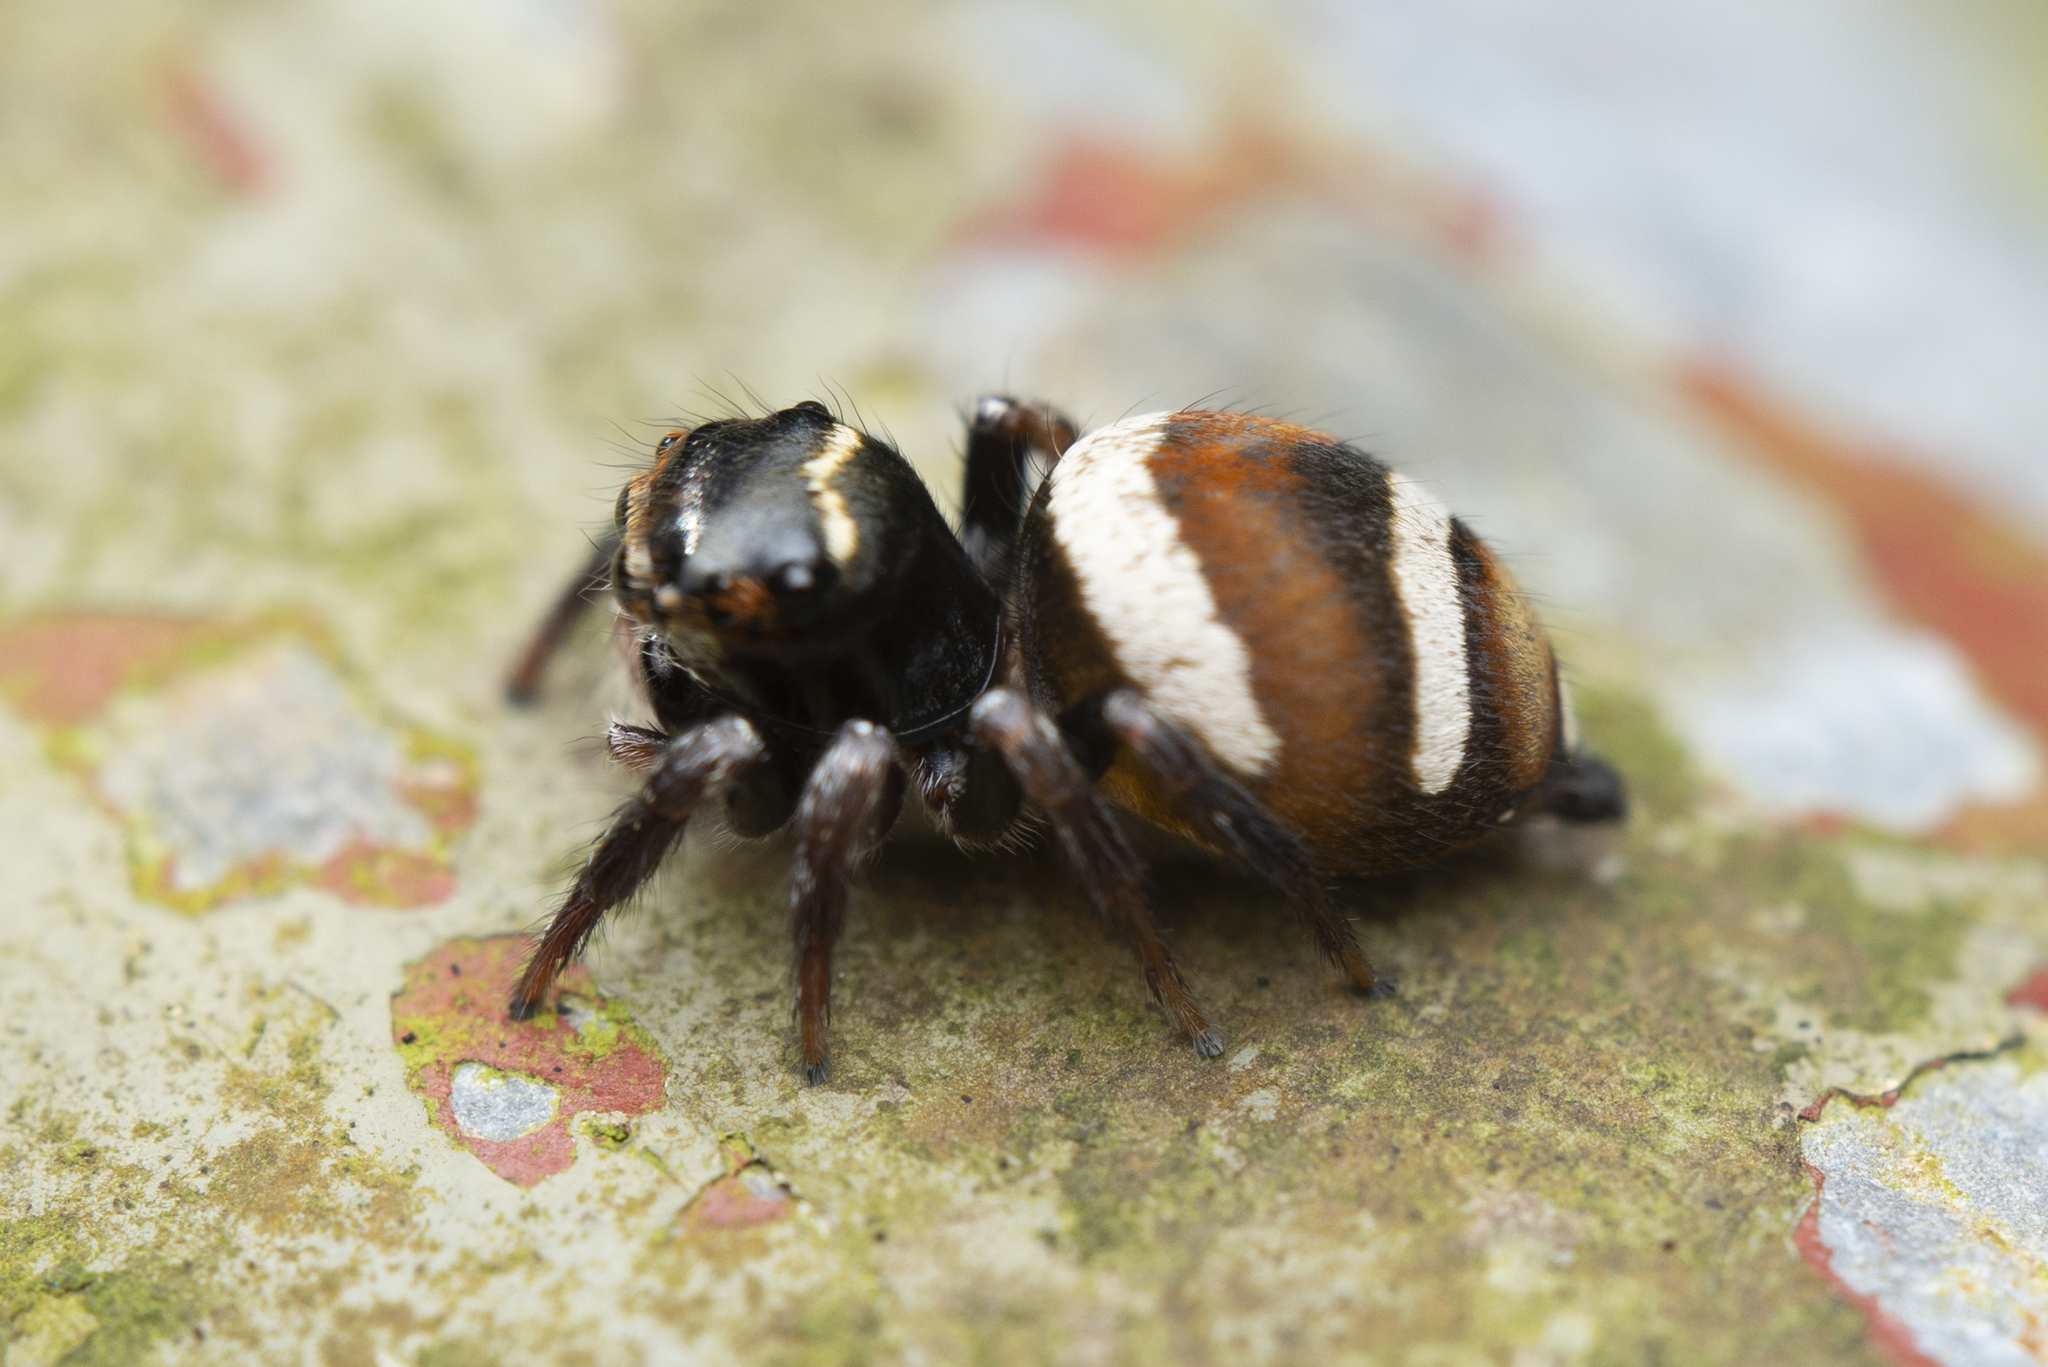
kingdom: Animalia
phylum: Arthropoda
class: Arachnida
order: Araneae
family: Salticidae
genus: Ptocasius
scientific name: Ptocasius strupifer
